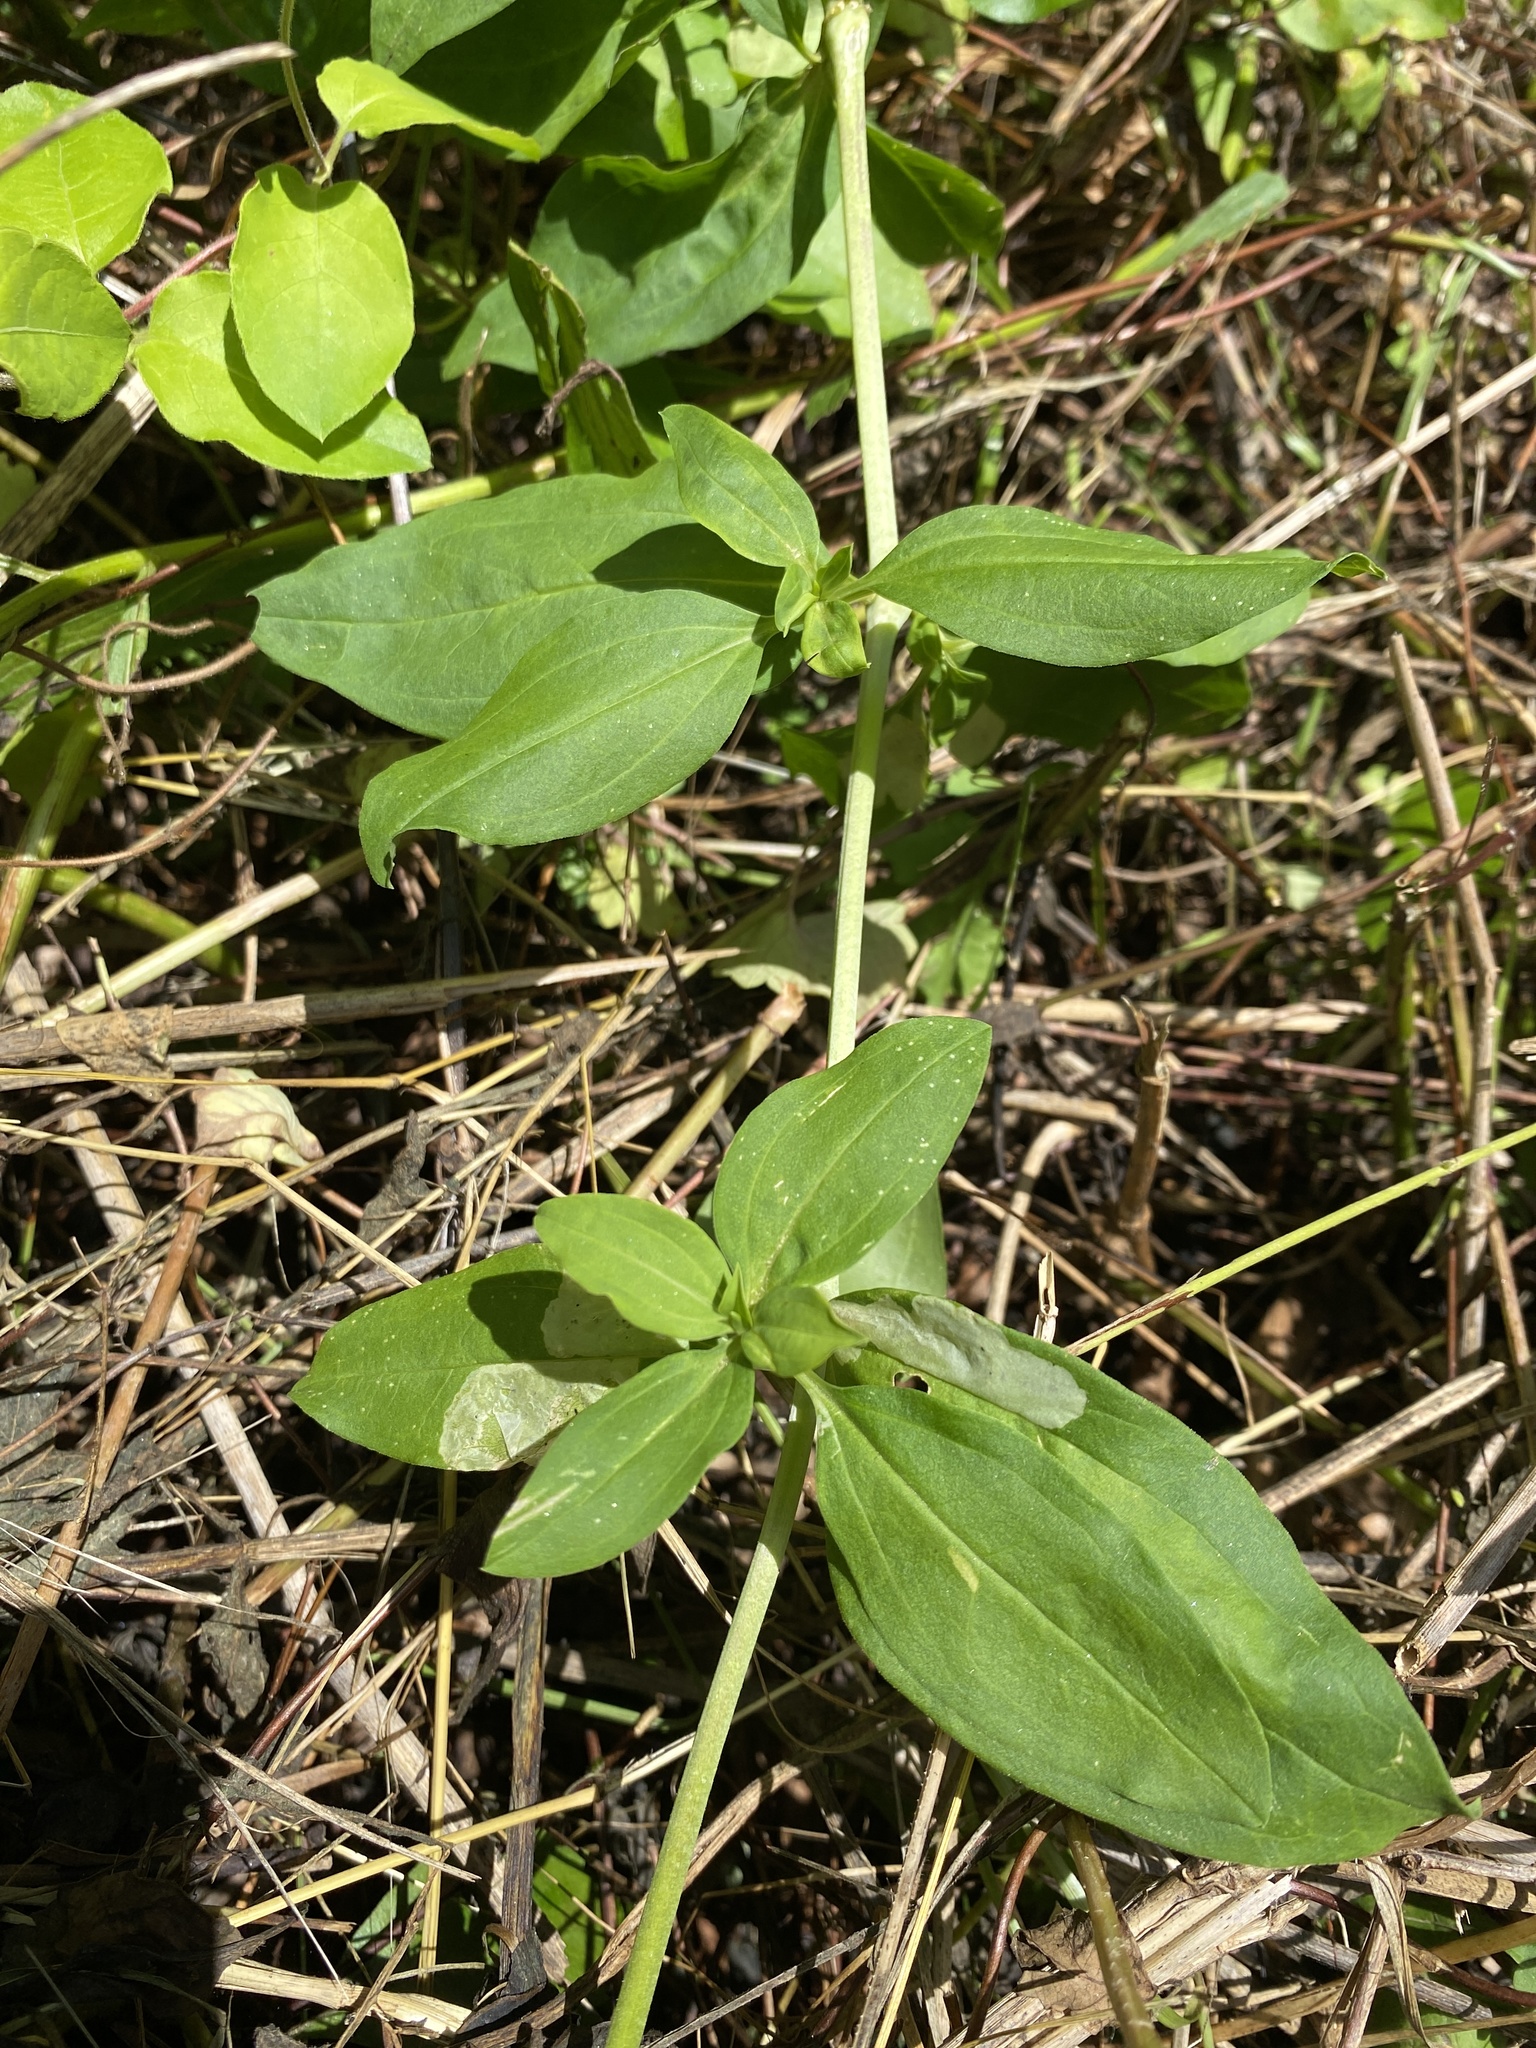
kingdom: Plantae
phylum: Tracheophyta
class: Magnoliopsida
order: Caryophyllales
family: Caryophyllaceae
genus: Saponaria
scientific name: Saponaria officinalis
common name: Soapwort
